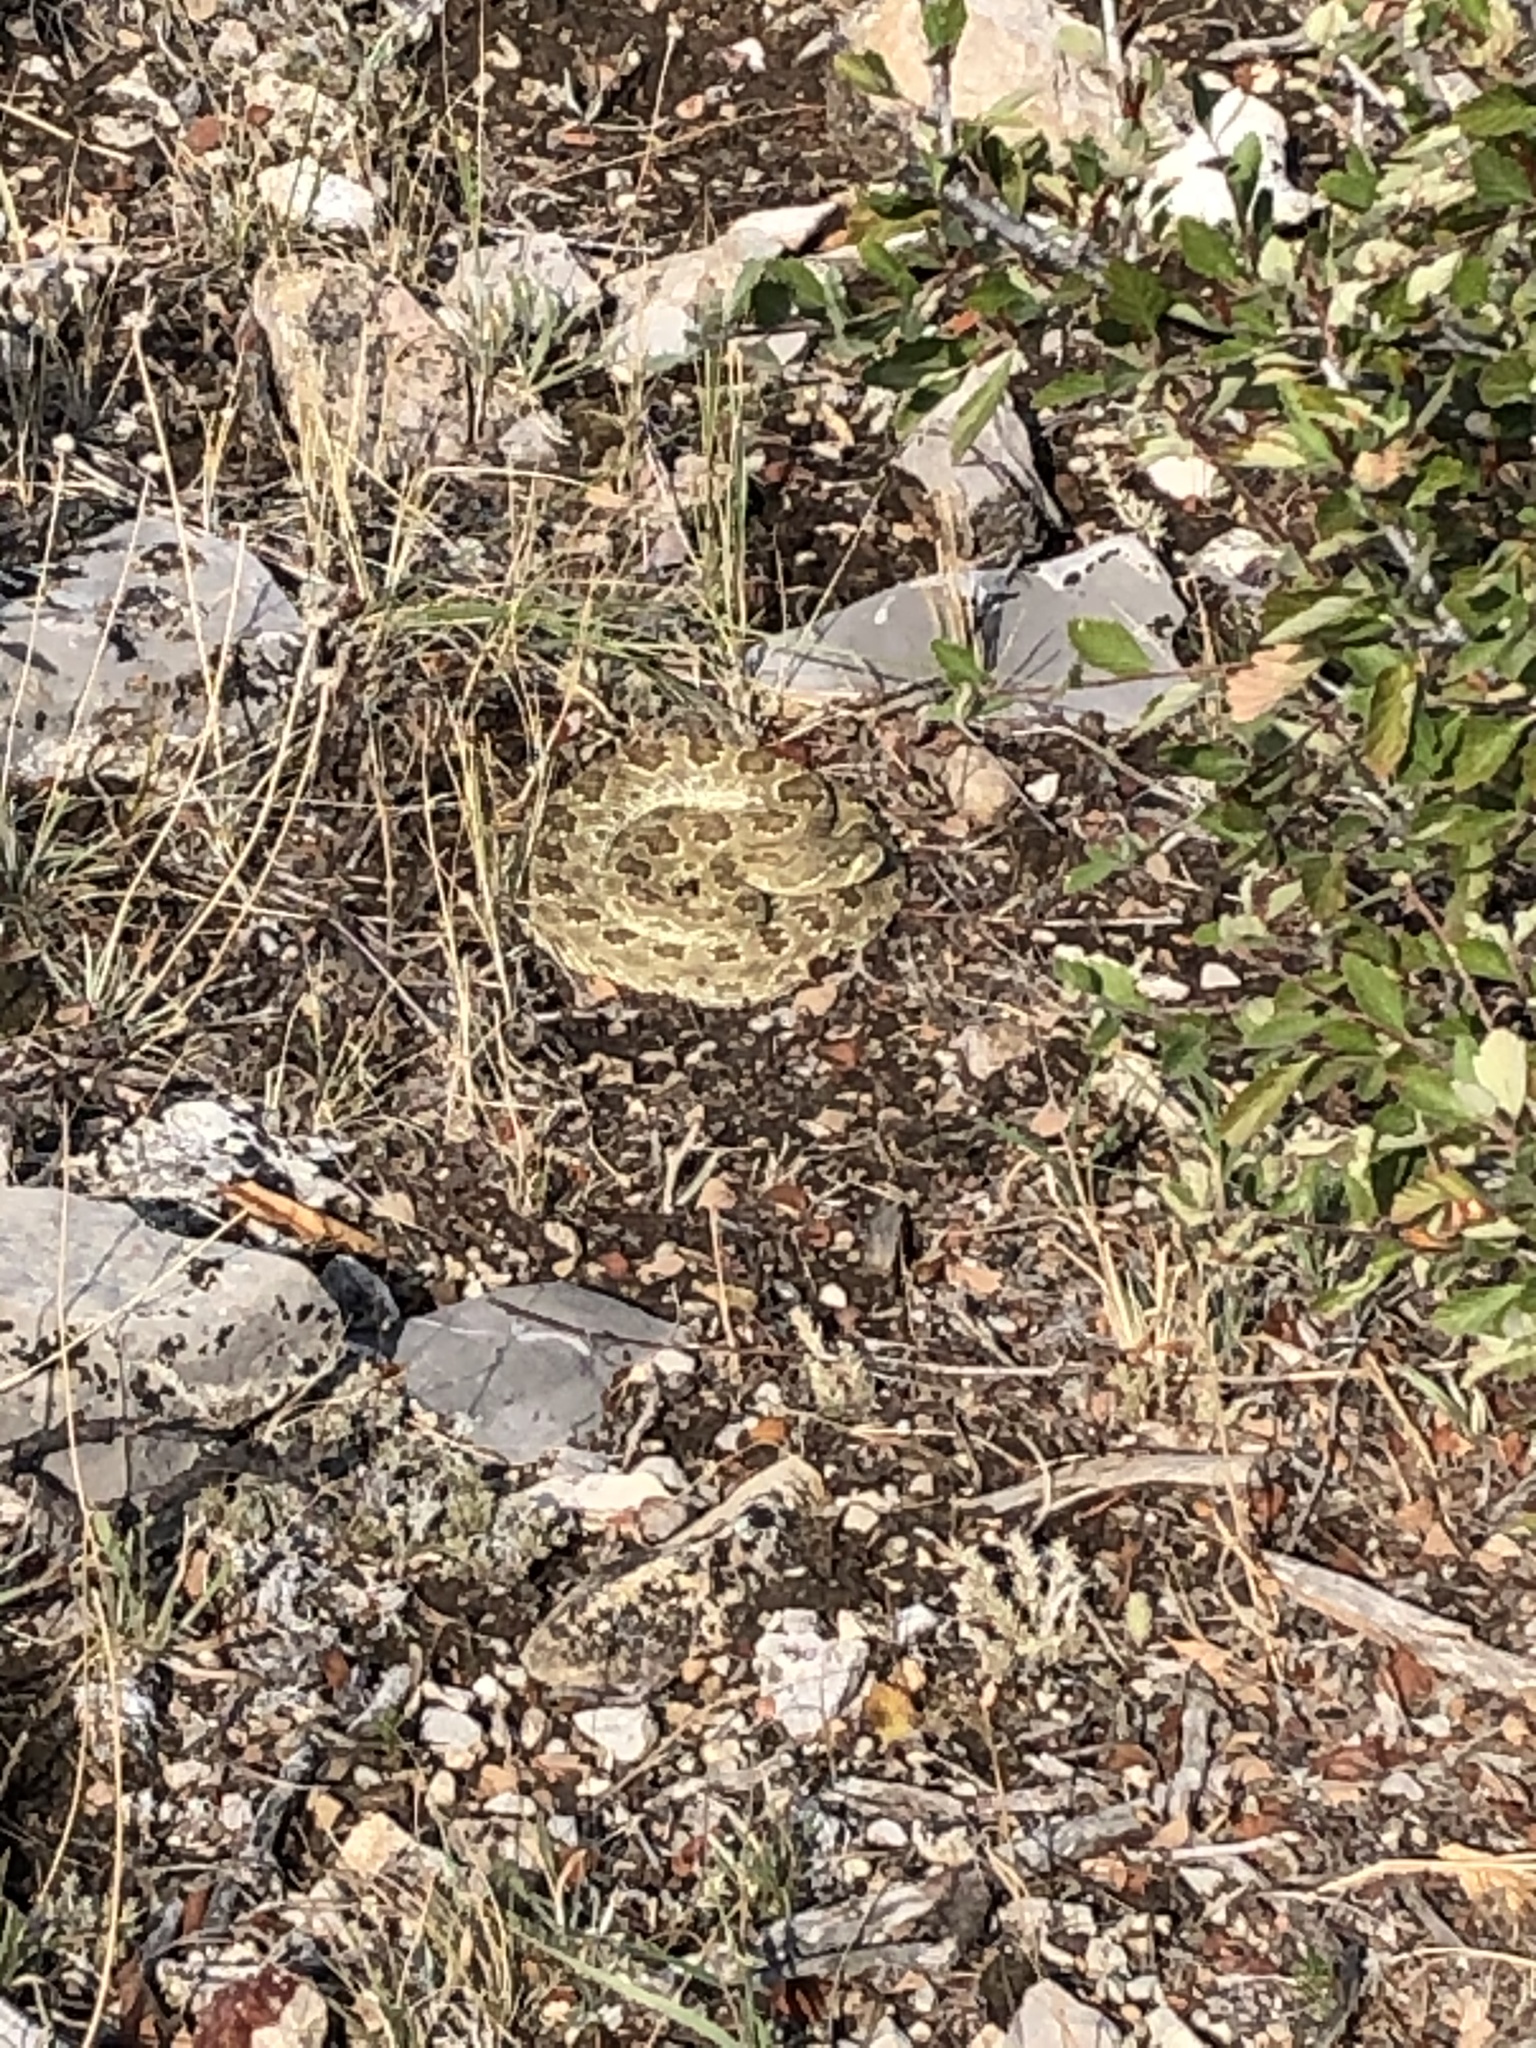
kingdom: Animalia
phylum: Chordata
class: Squamata
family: Viperidae
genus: Crotalus
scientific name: Crotalus viridis
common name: Prairie rattlesnake
